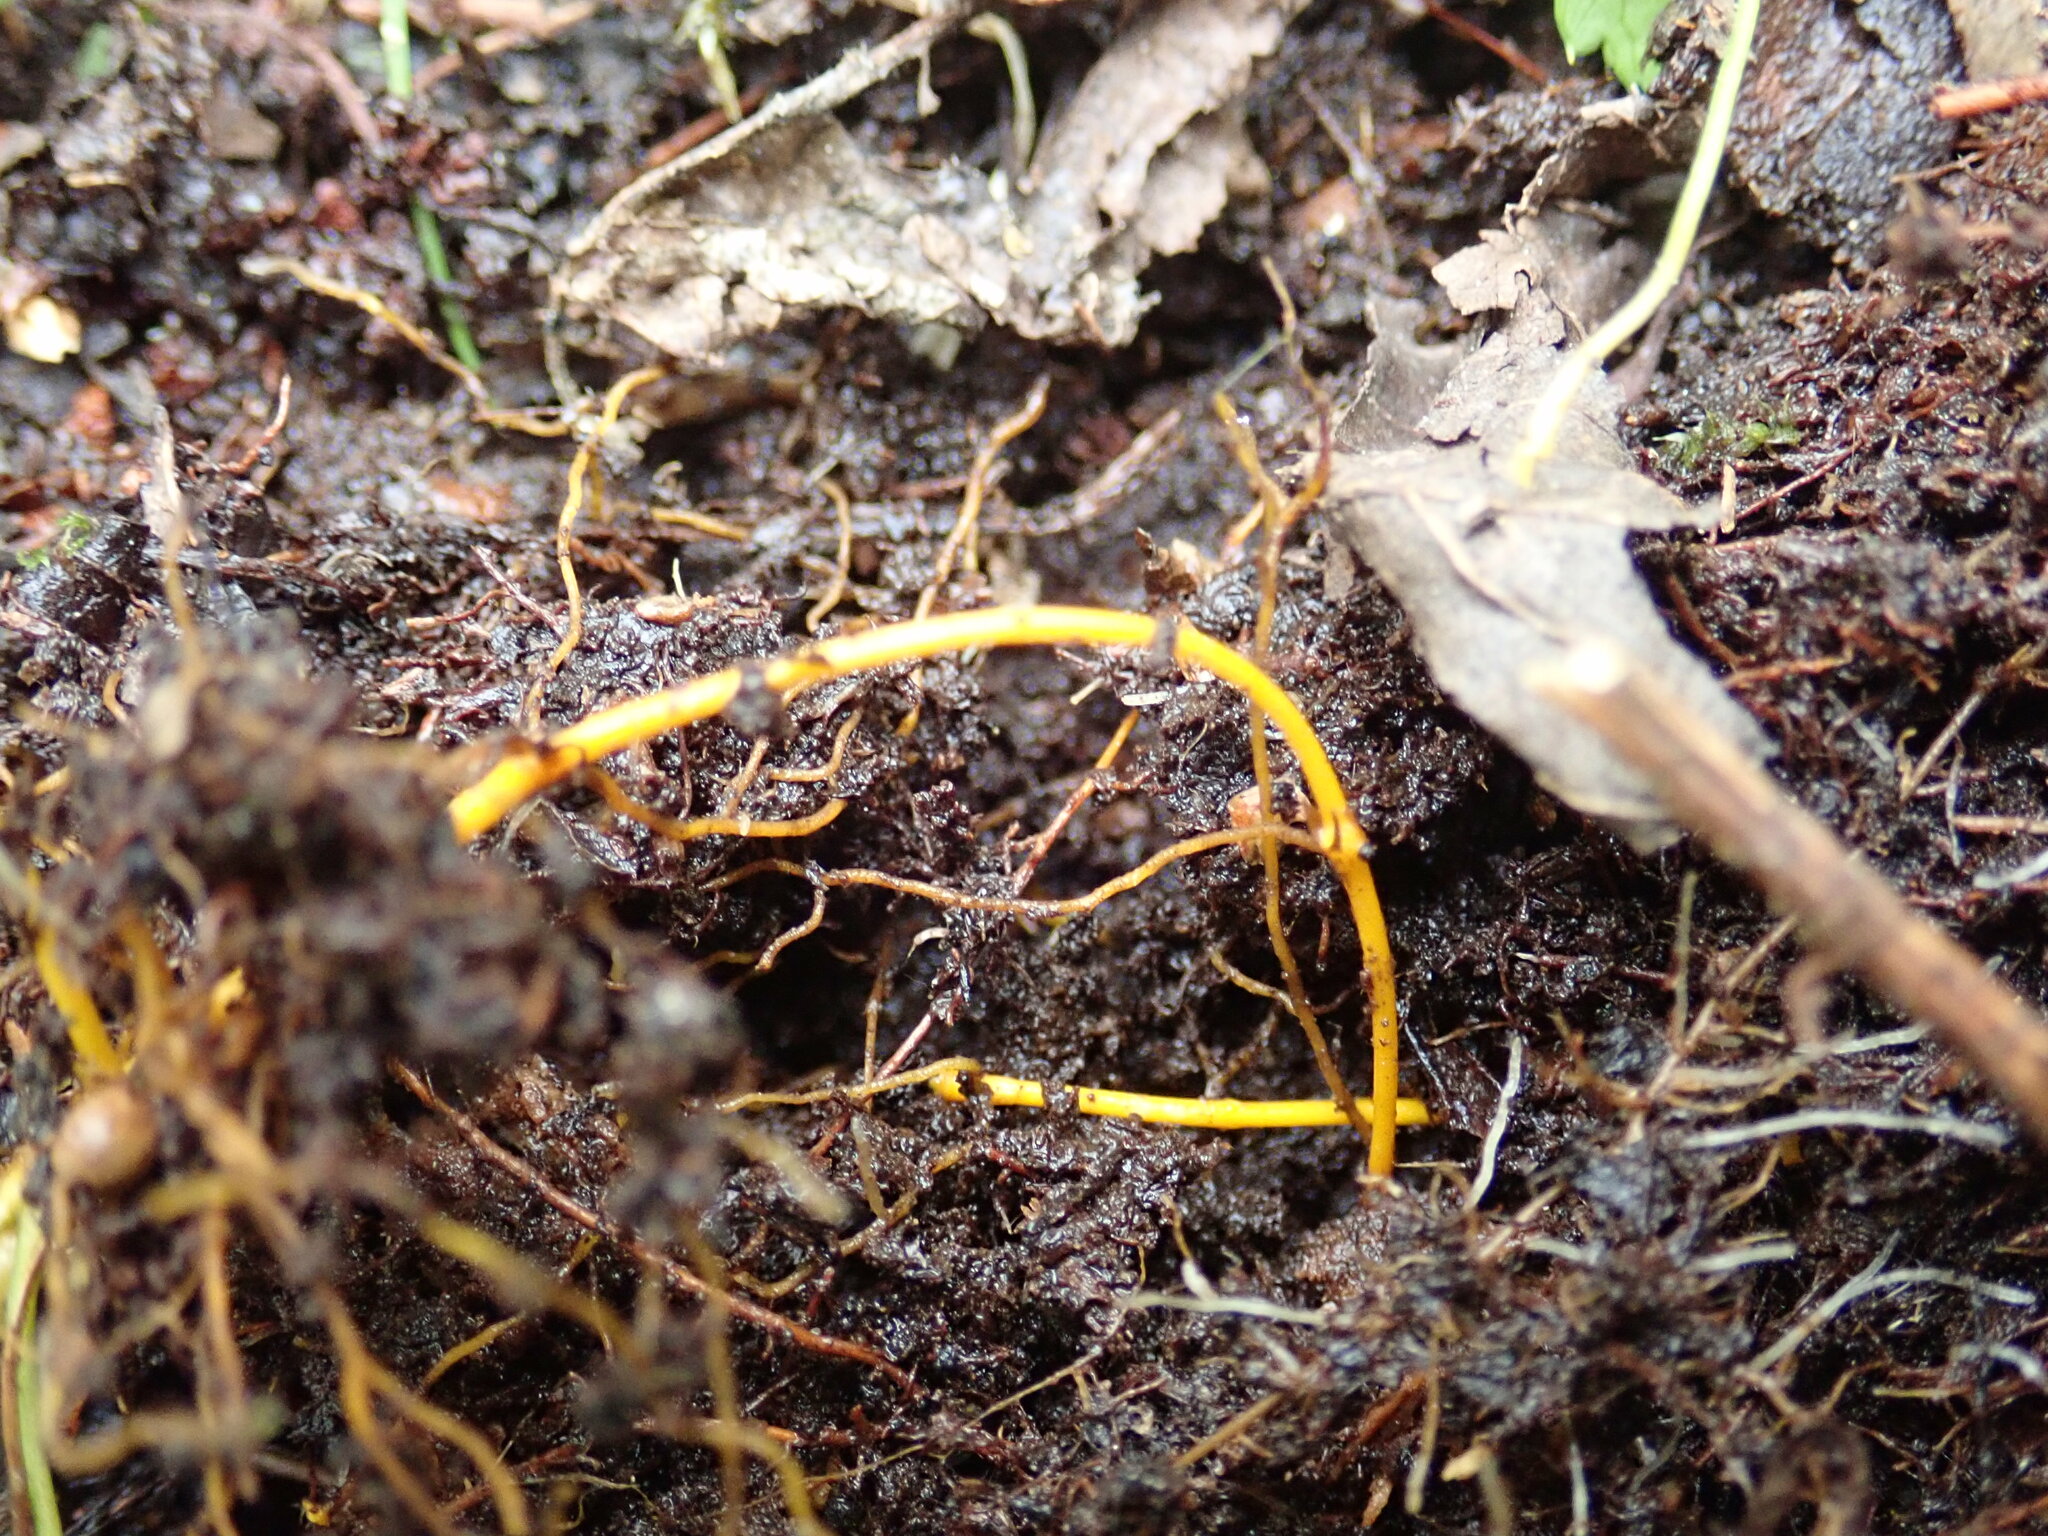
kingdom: Plantae
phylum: Tracheophyta
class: Magnoliopsida
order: Ranunculales
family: Ranunculaceae
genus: Coptis
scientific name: Coptis trifolia
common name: Canker-root
